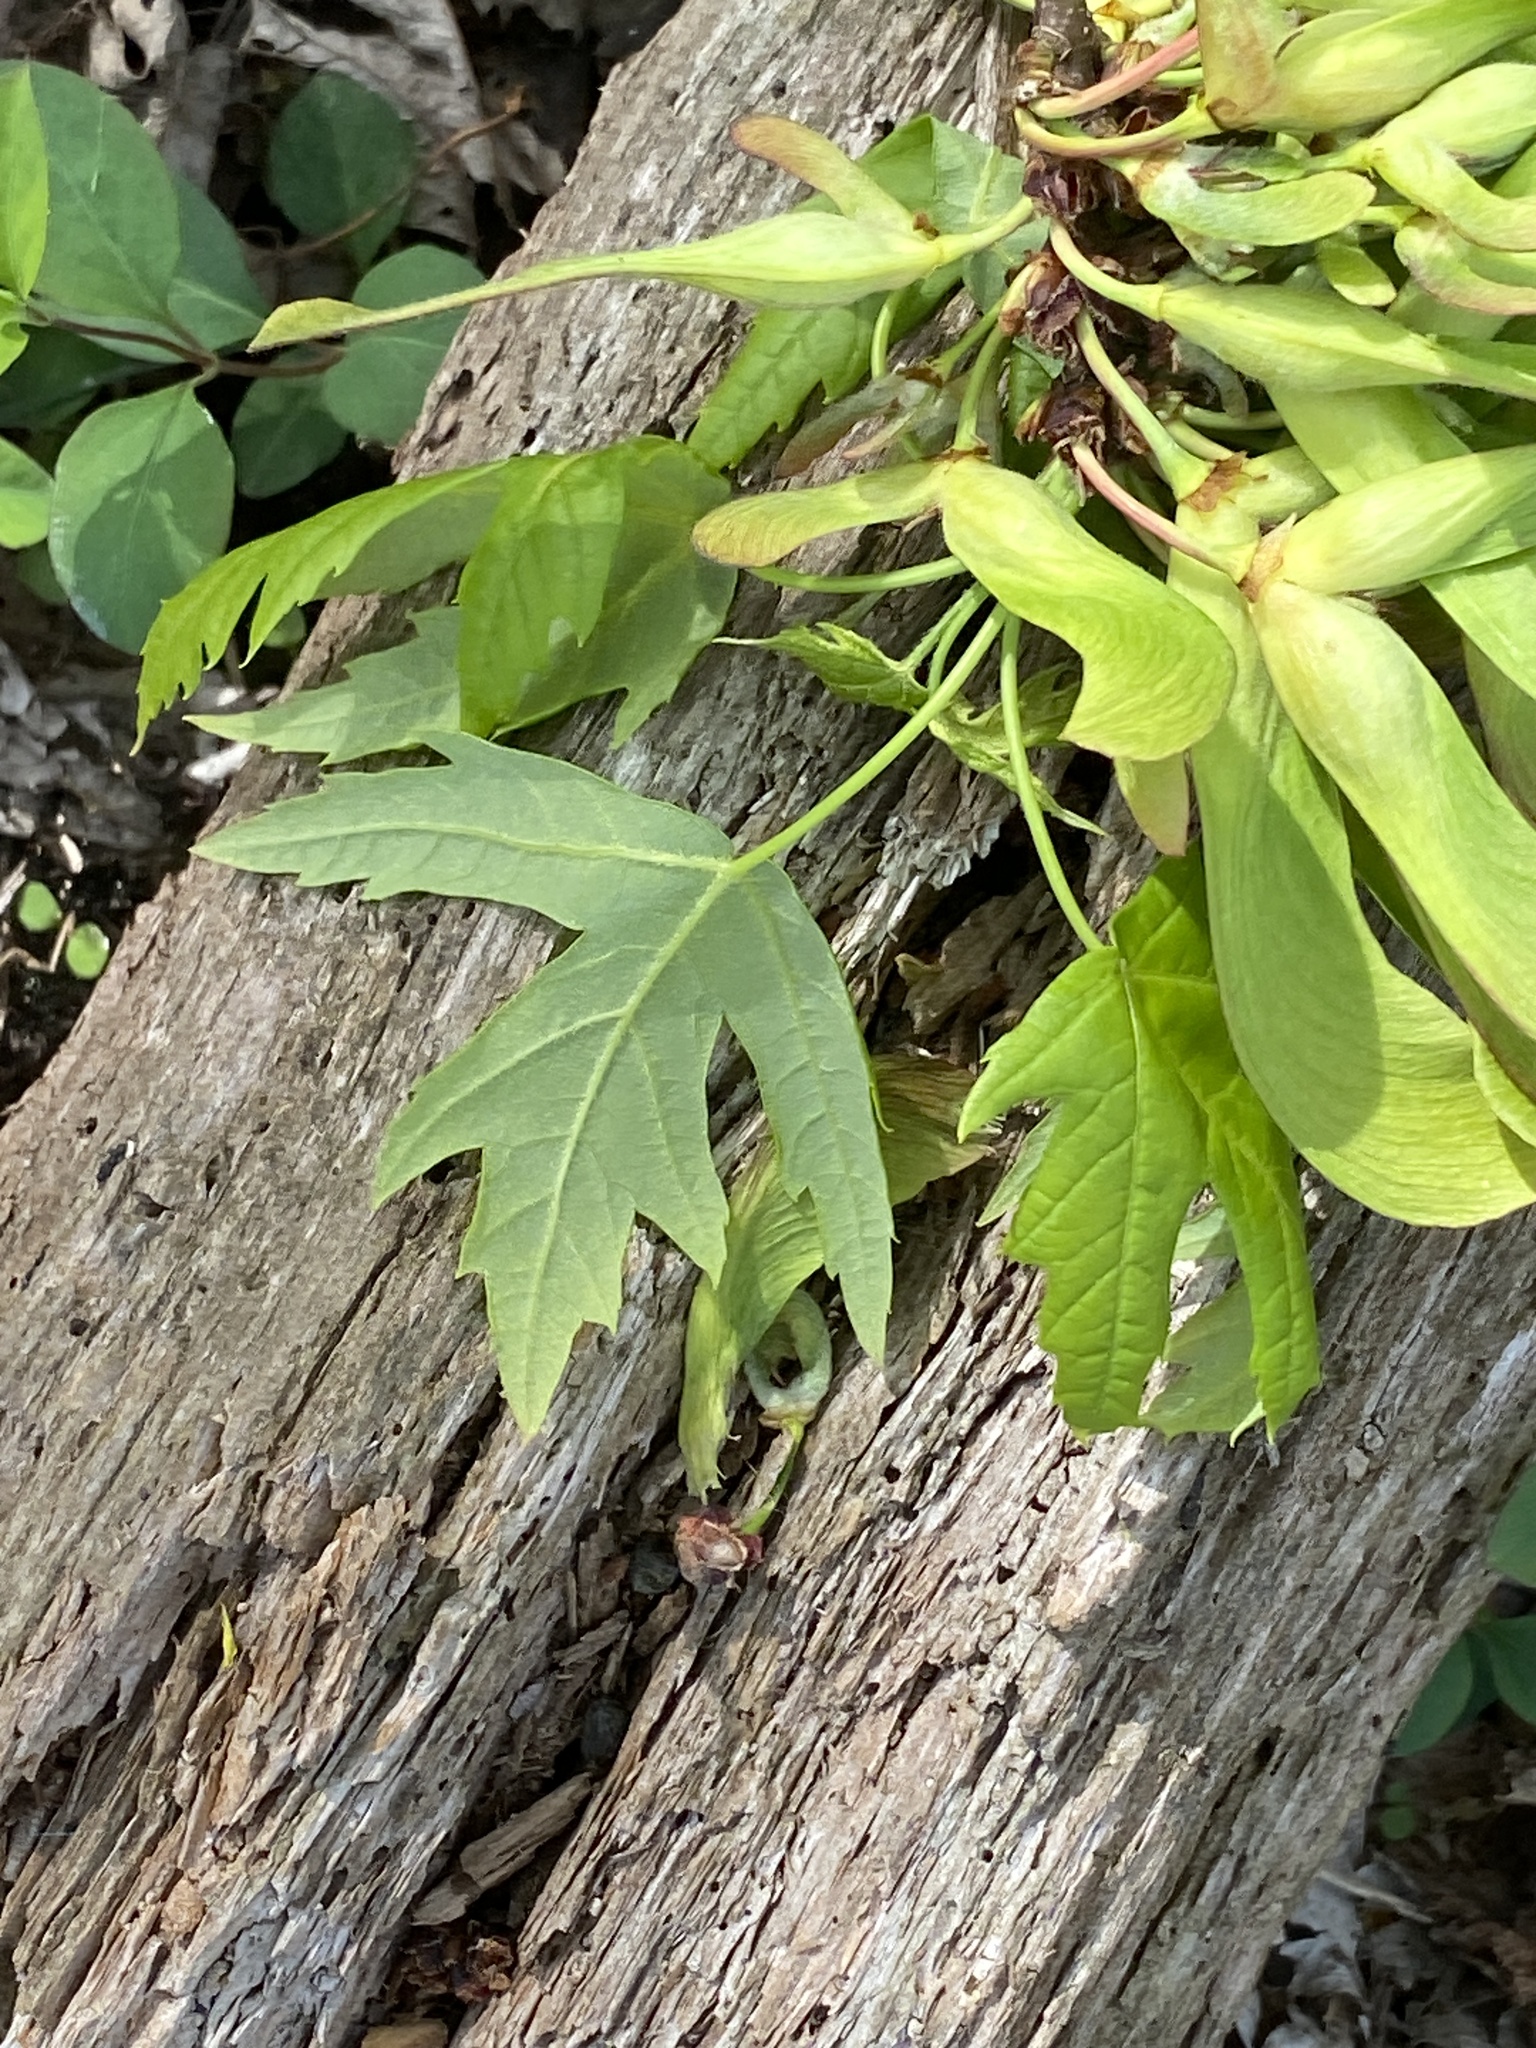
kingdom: Plantae
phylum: Tracheophyta
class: Magnoliopsida
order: Sapindales
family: Sapindaceae
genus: Acer
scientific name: Acer saccharinum
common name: Silver maple
